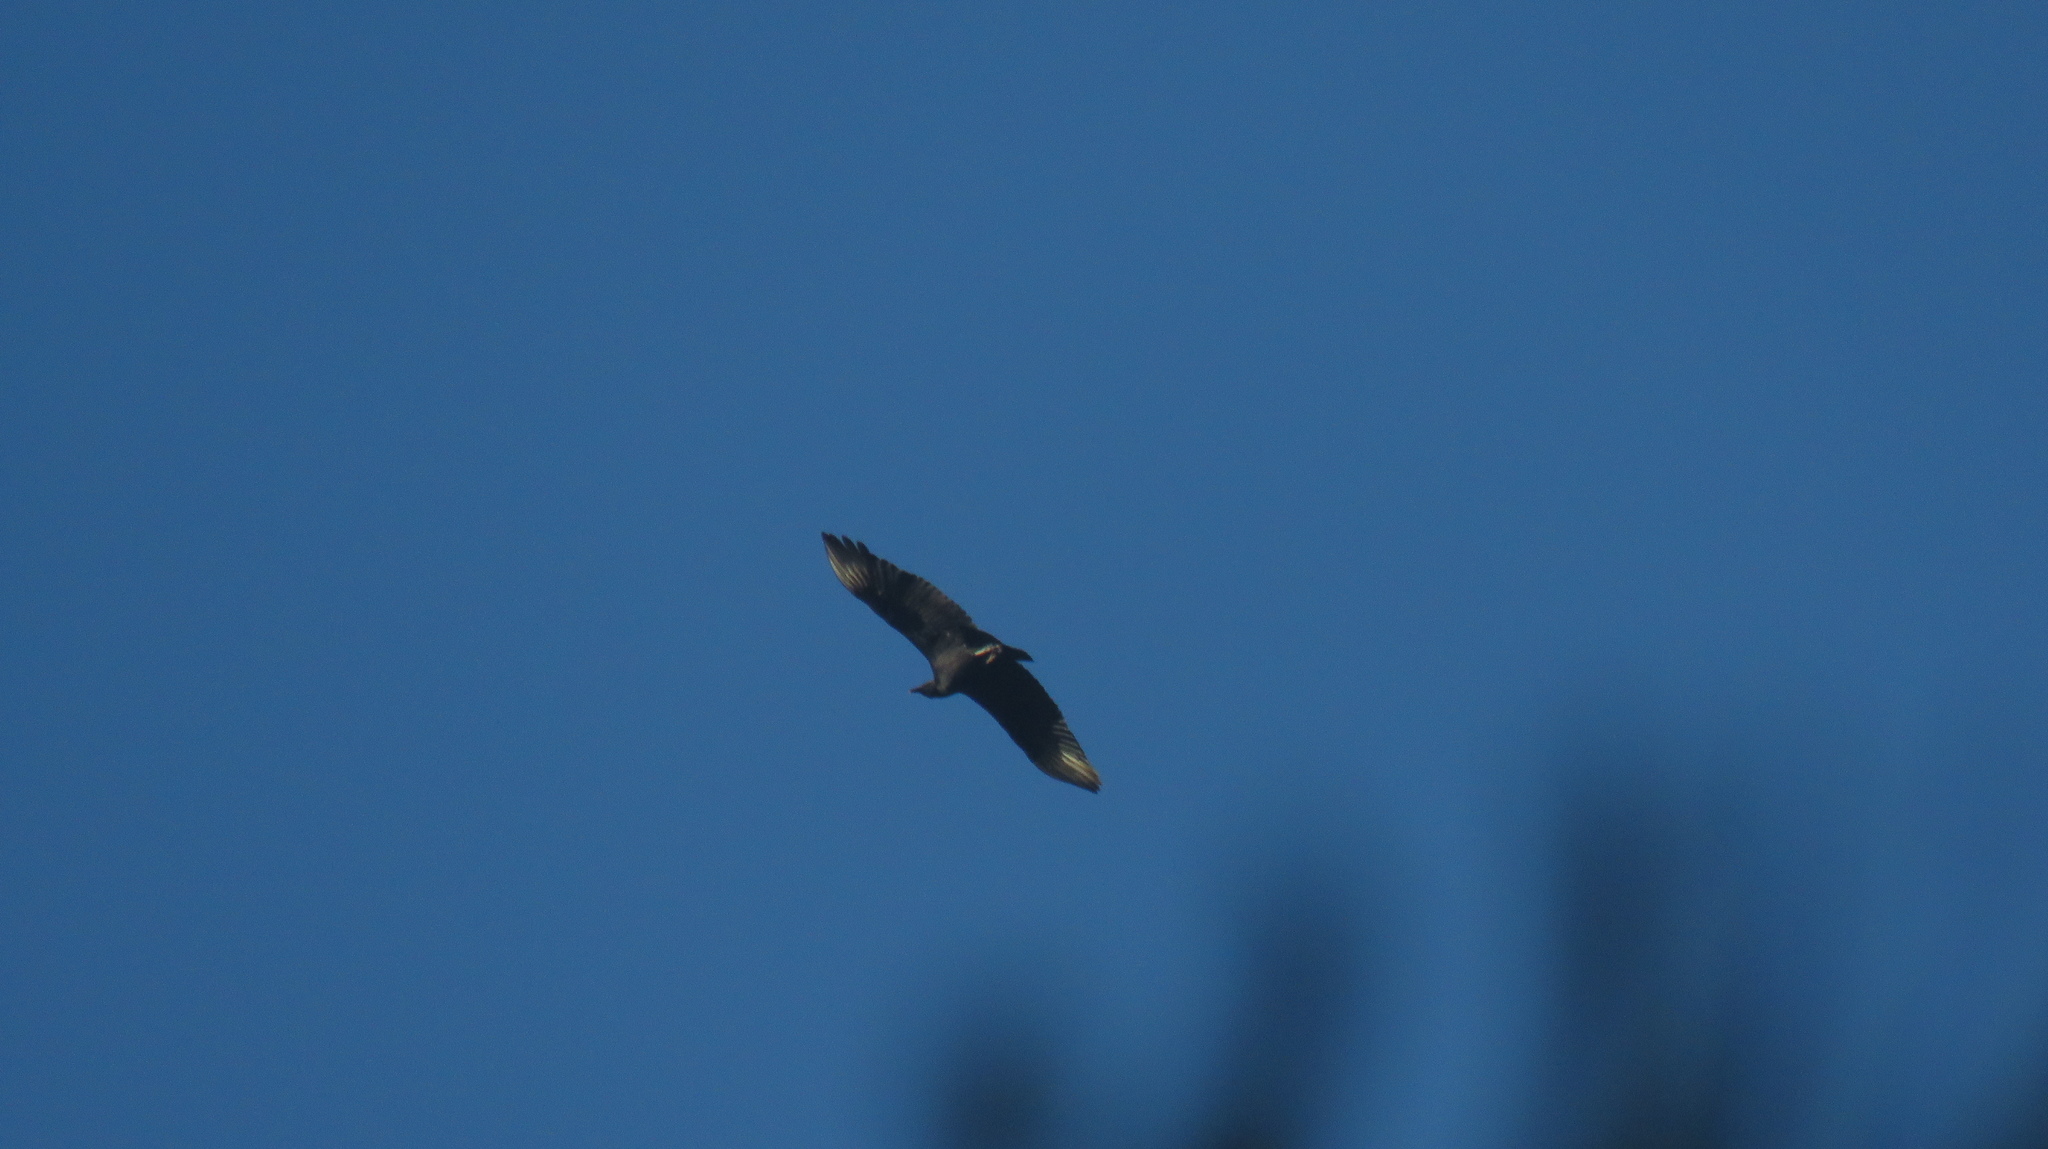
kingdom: Animalia
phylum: Chordata
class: Aves
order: Accipitriformes
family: Cathartidae
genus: Coragyps
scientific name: Coragyps atratus
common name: Black vulture
